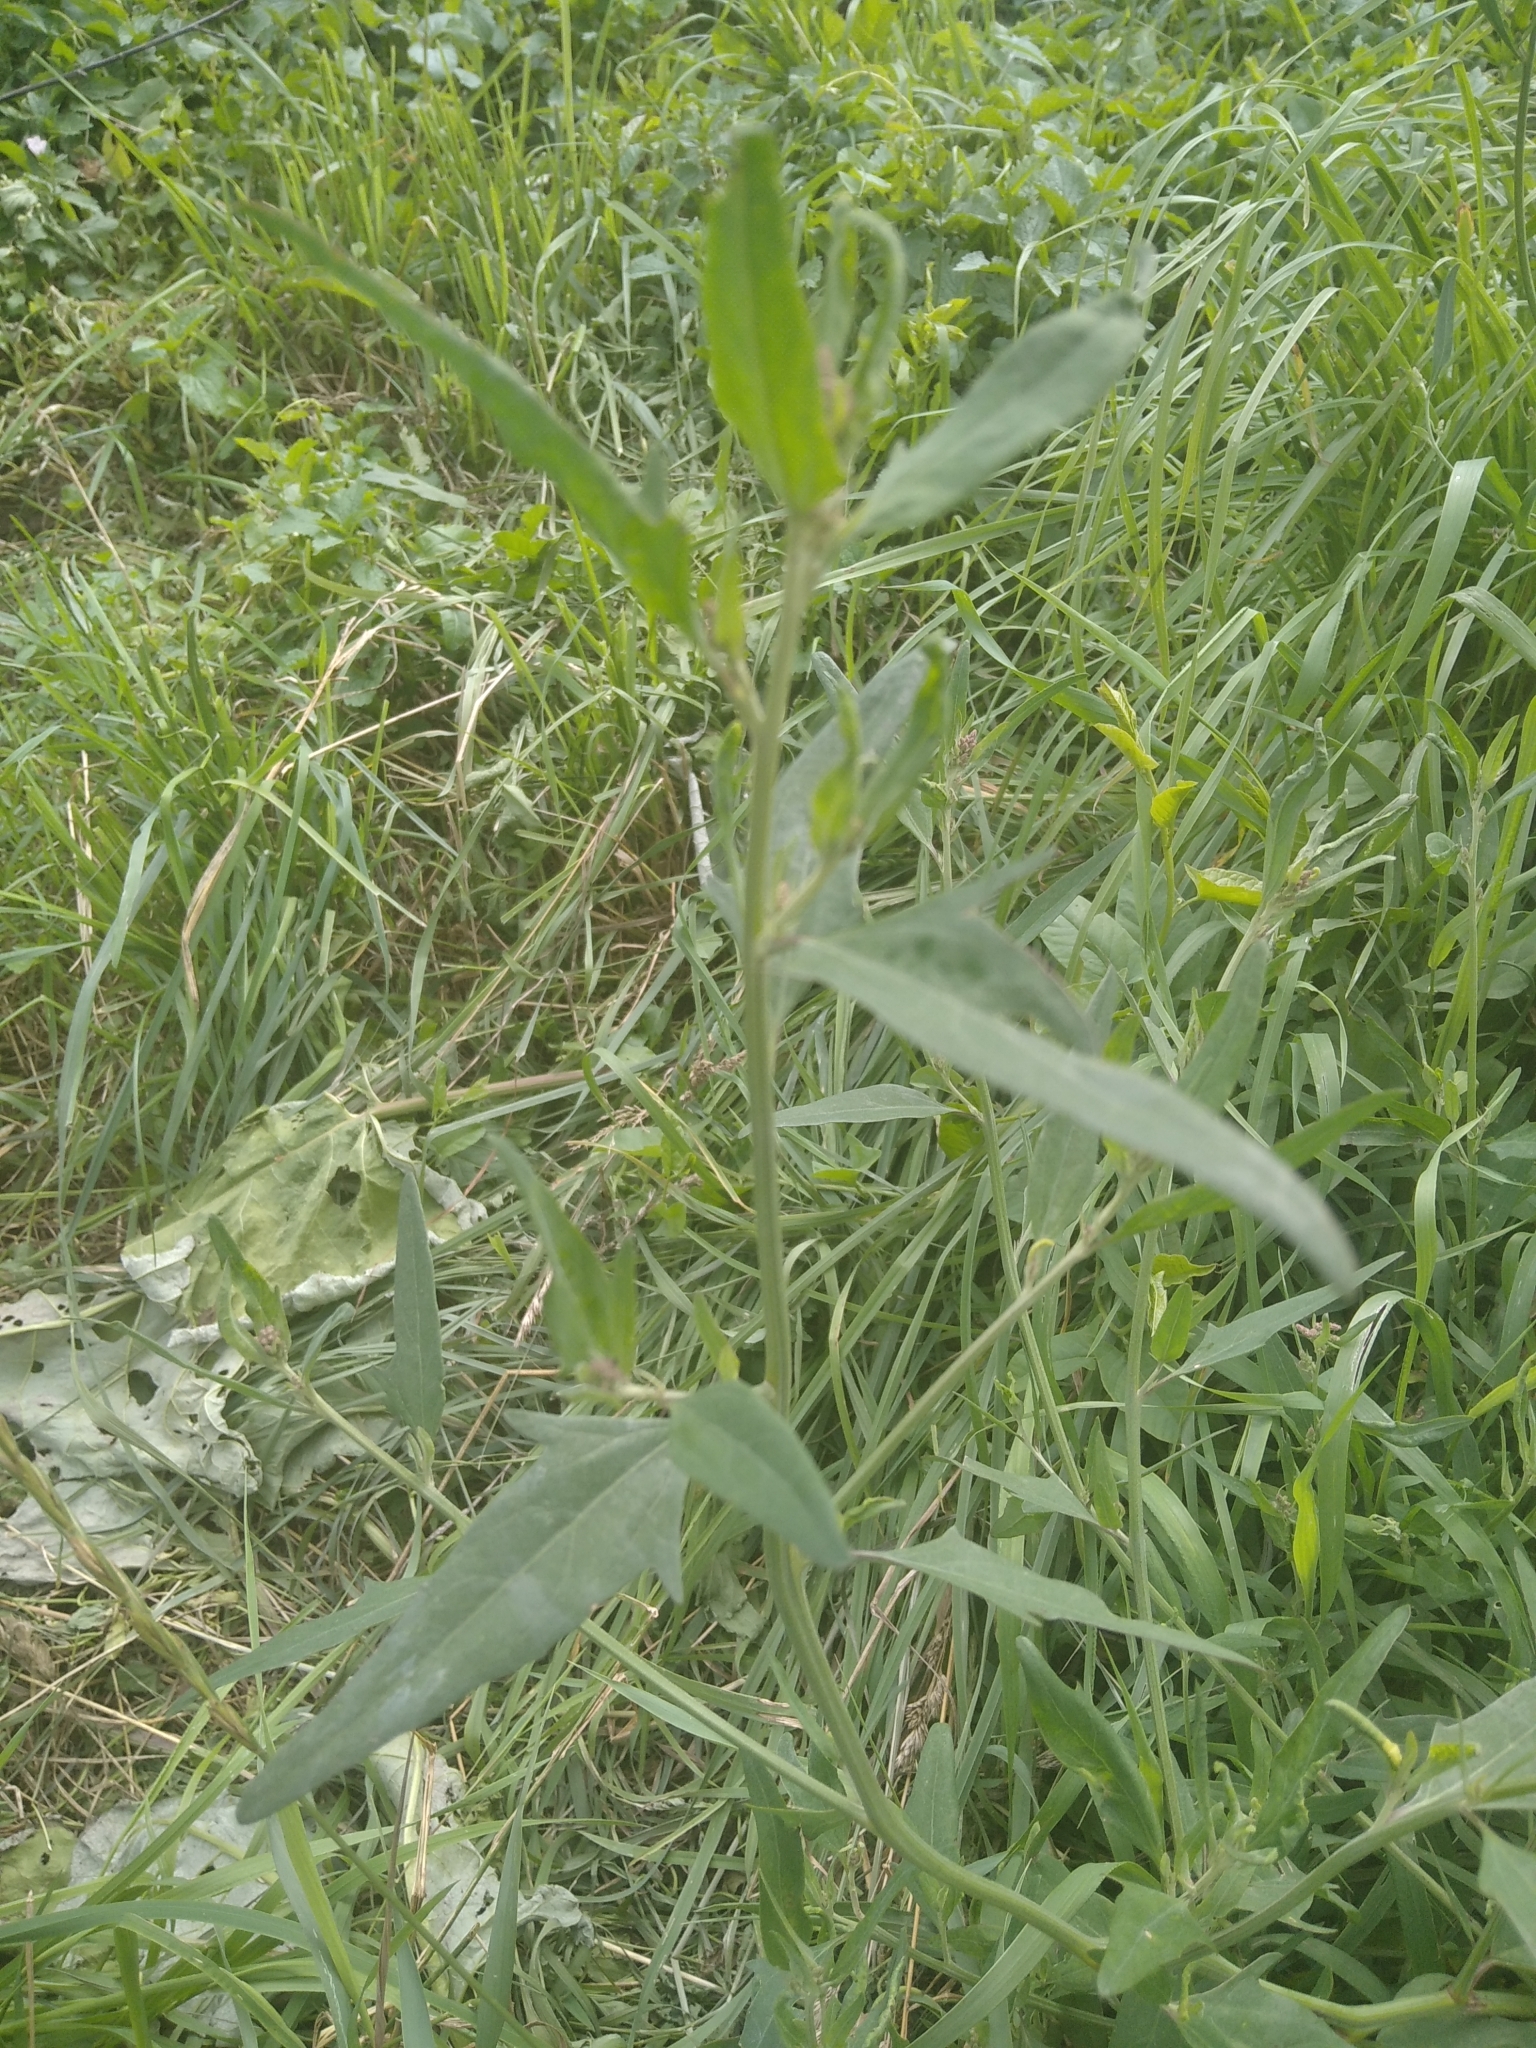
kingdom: Plantae
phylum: Tracheophyta
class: Magnoliopsida
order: Caryophyllales
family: Amaranthaceae
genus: Atriplex
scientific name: Atriplex patula
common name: Common orache
